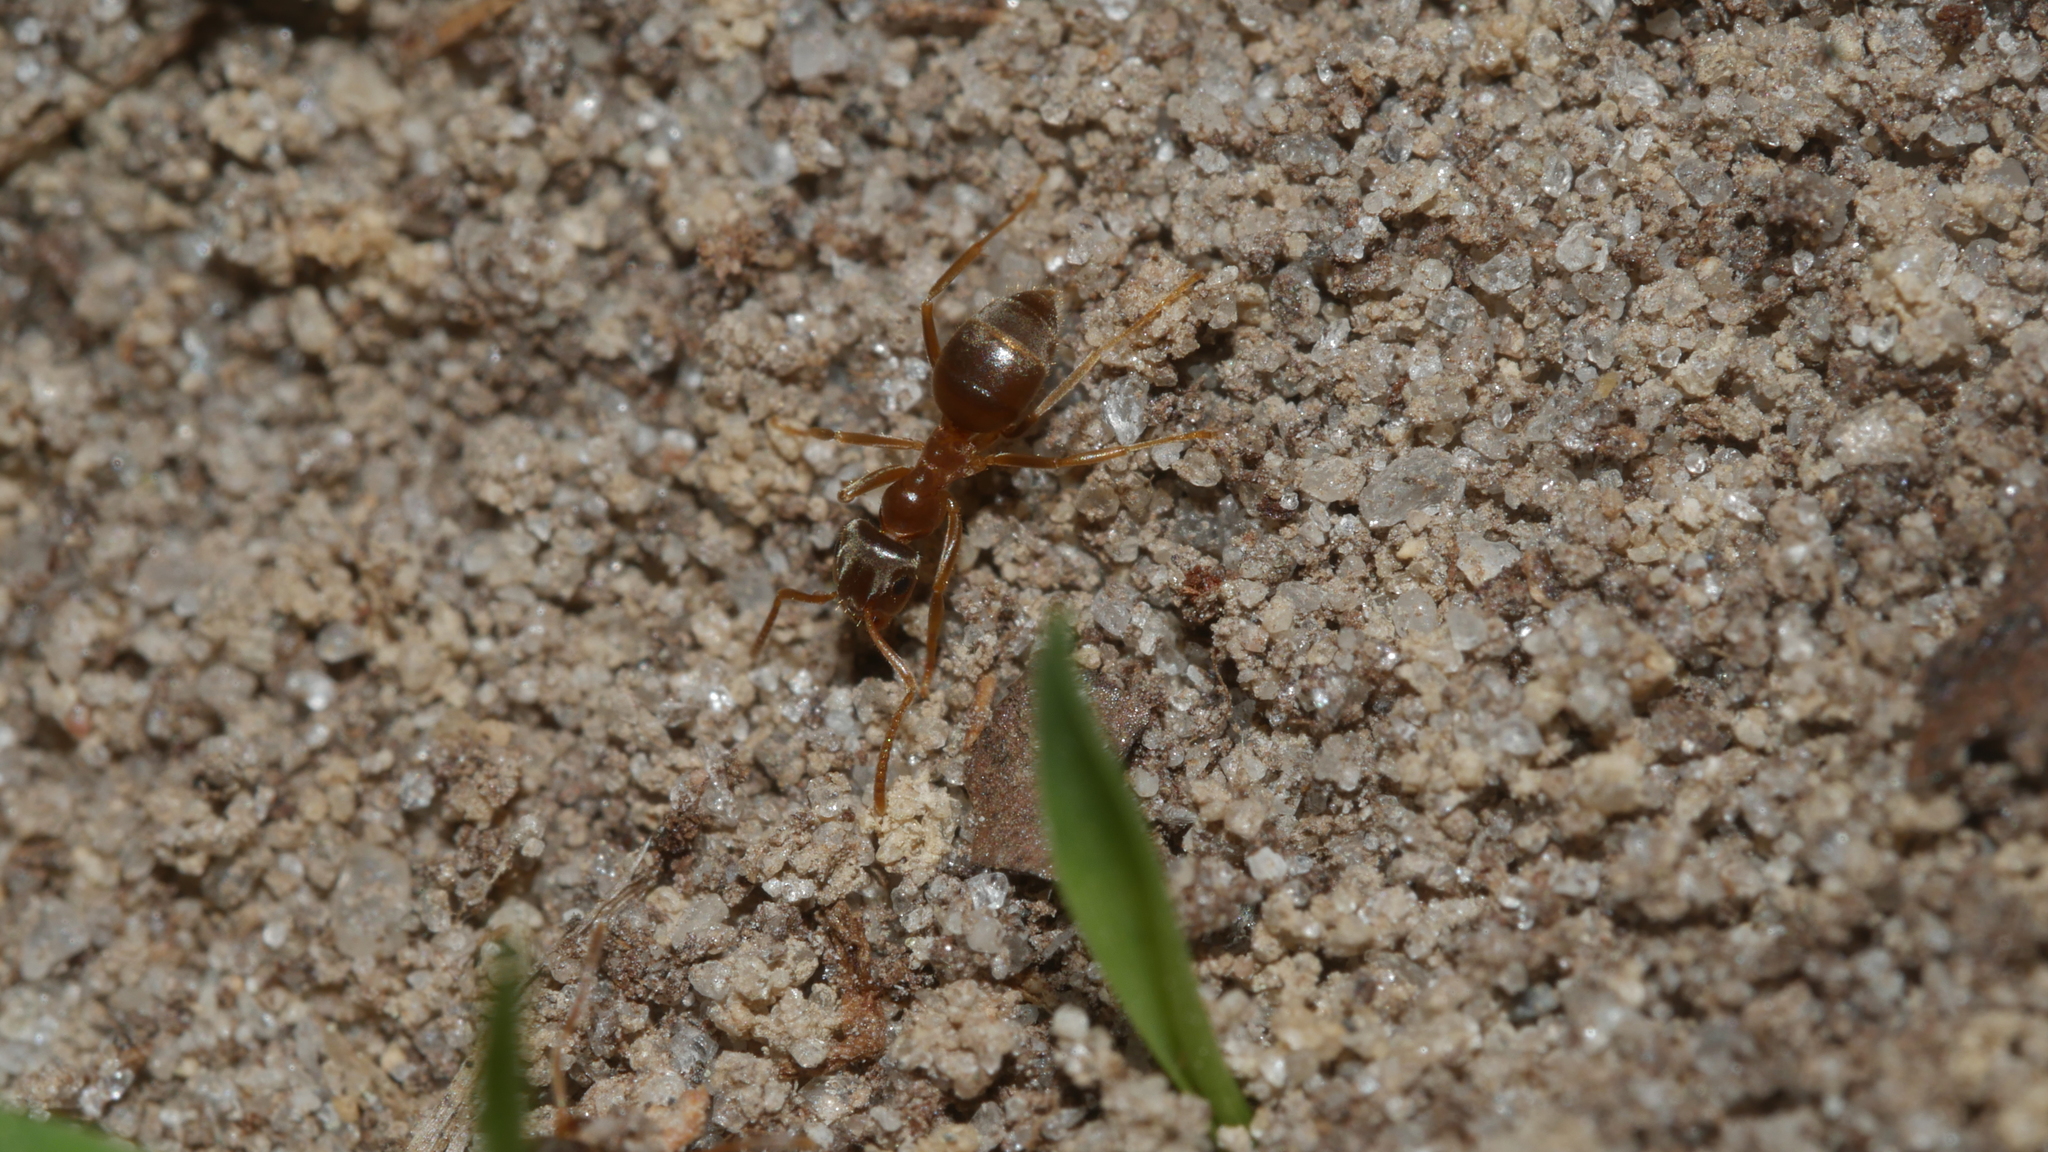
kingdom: Animalia
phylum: Arthropoda
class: Insecta
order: Hymenoptera
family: Formicidae
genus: Lasius
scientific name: Lasius neoniger
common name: Turfgrass ant
